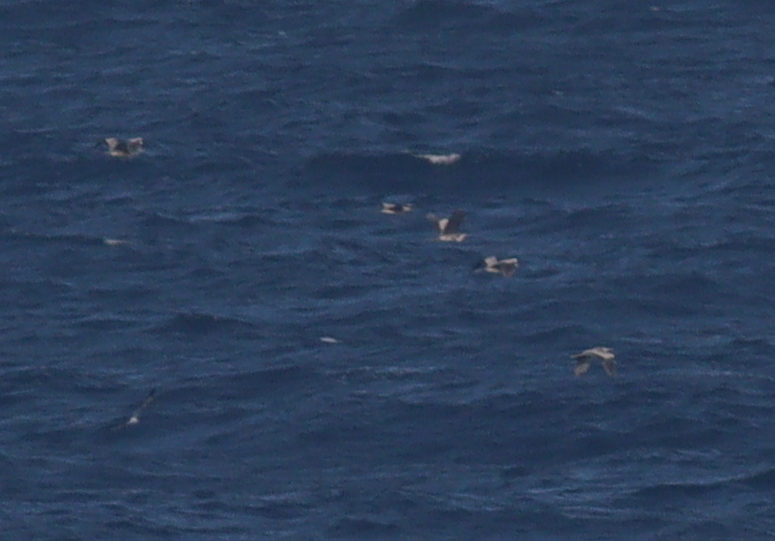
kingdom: Animalia
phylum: Chordata
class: Aves
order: Pelecaniformes
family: Ardeidae
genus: Ardea
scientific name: Ardea cinerea
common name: Grey heron
